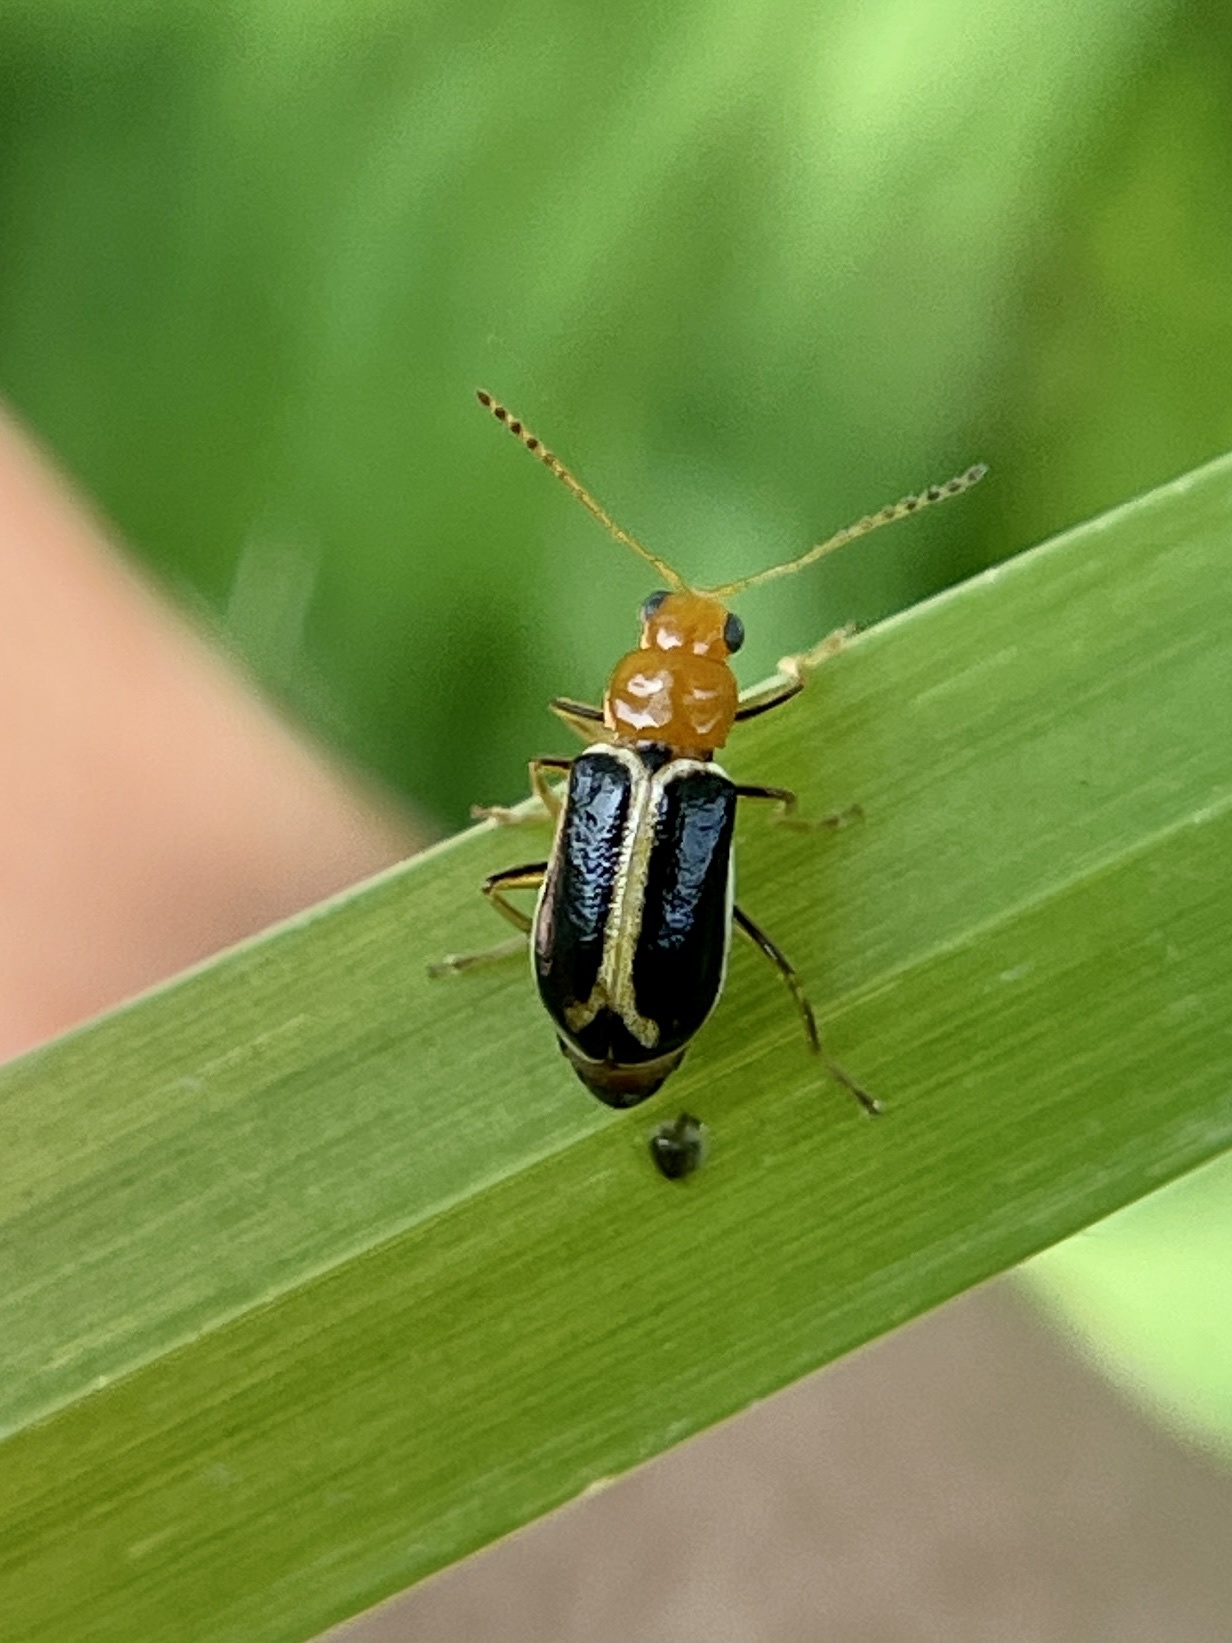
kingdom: Animalia
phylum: Arthropoda
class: Insecta
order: Coleoptera
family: Chrysomelidae
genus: Cyclotrypema
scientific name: Cyclotrypema furcata
